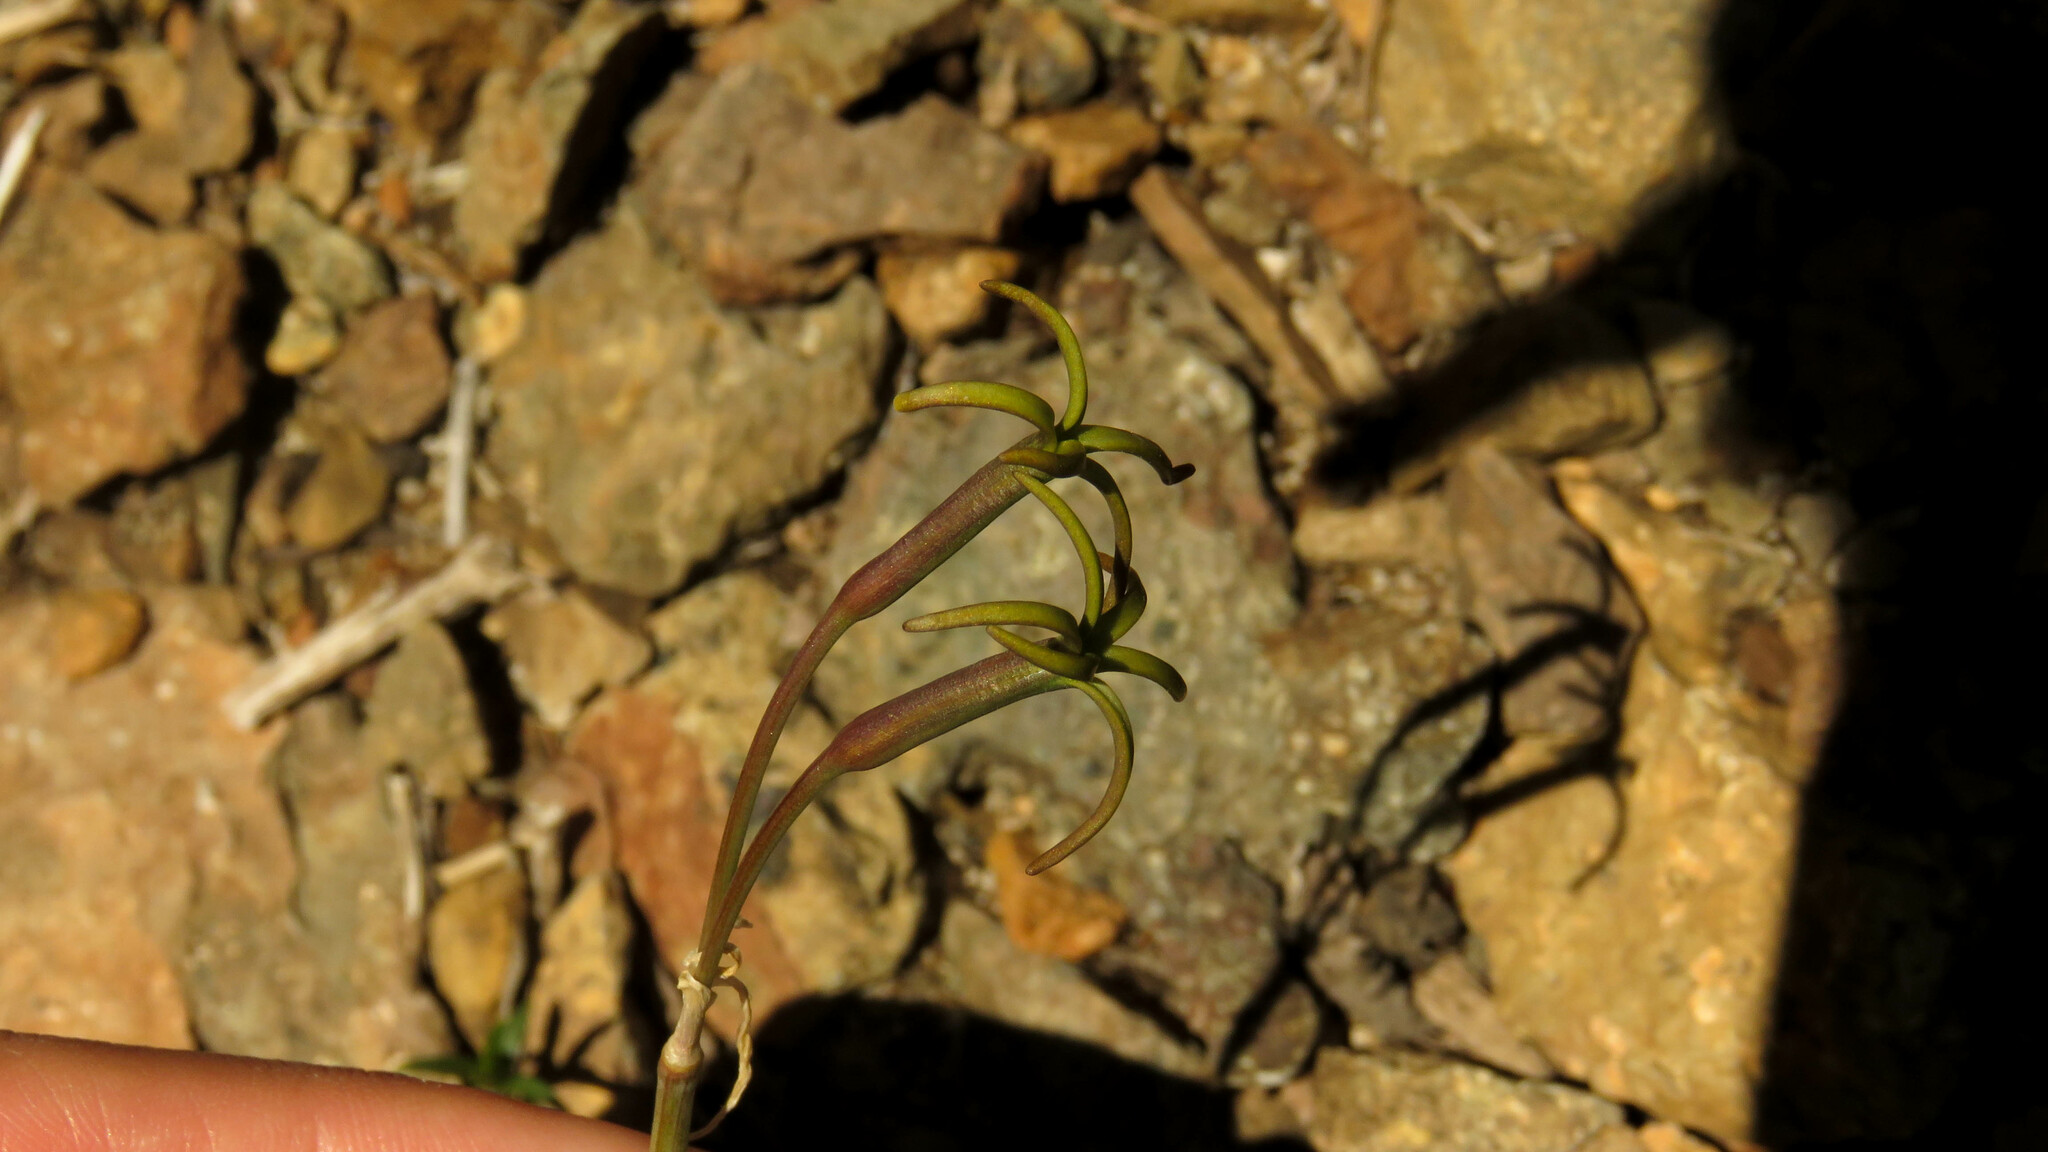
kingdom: Plantae
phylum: Tracheophyta
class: Liliopsida
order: Asparagales
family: Amaryllidaceae
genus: Tristagma
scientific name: Tristagma nivale
